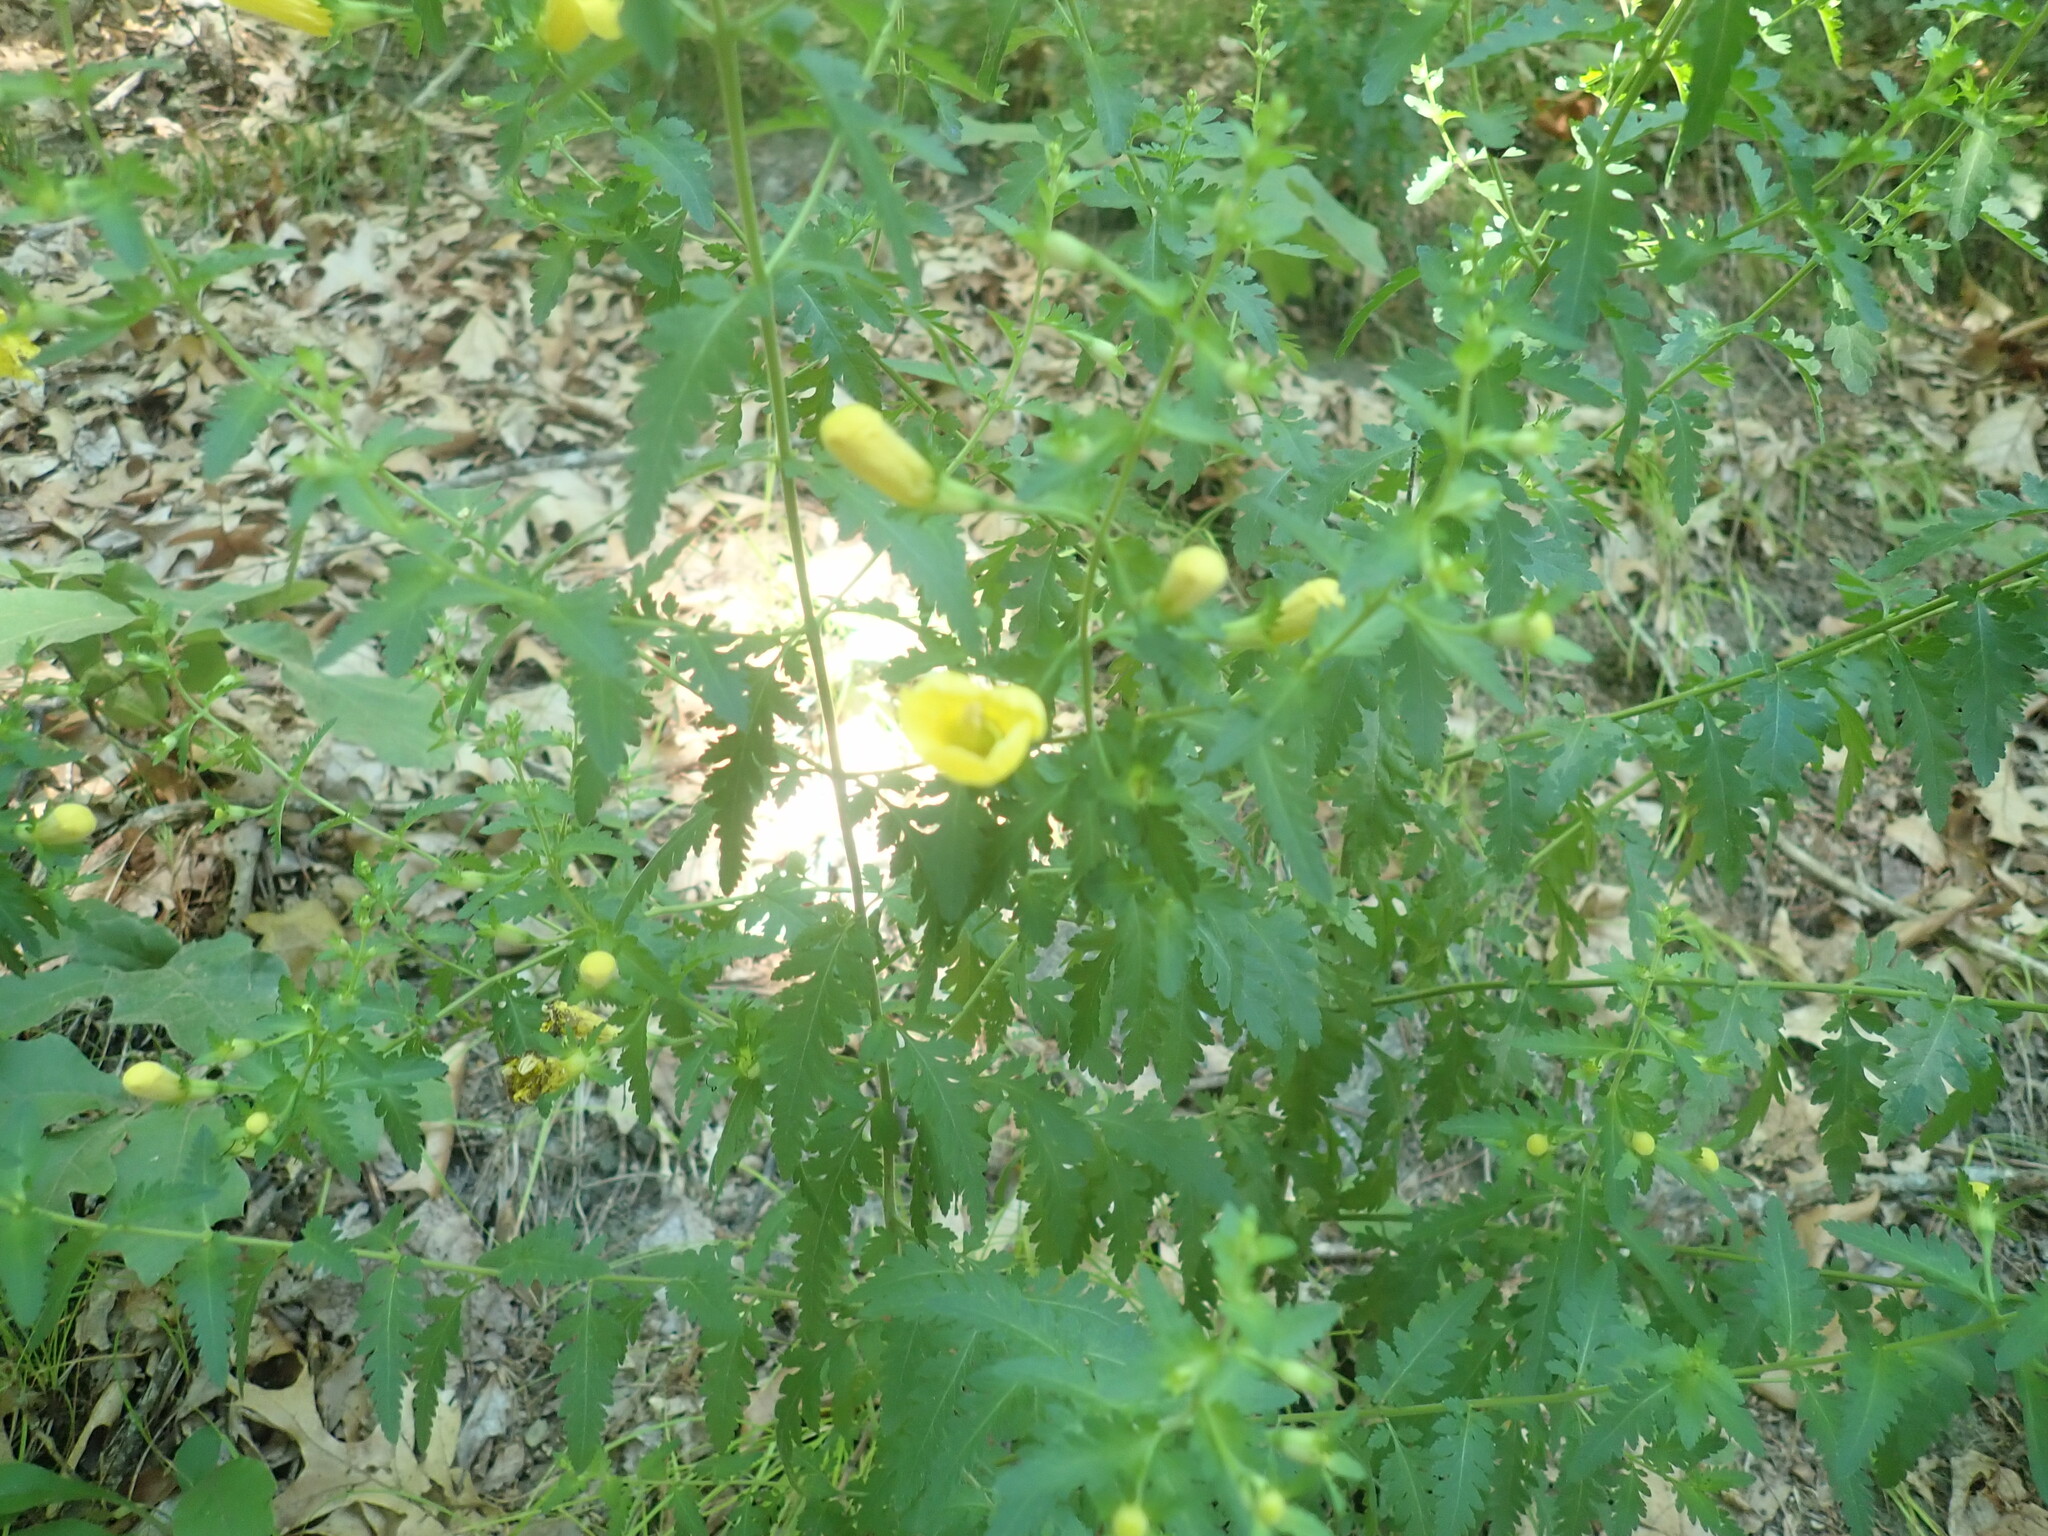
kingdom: Plantae
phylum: Tracheophyta
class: Magnoliopsida
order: Lamiales
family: Orobanchaceae
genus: Aureolaria
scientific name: Aureolaria pedicularia
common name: Annual false foxglove
